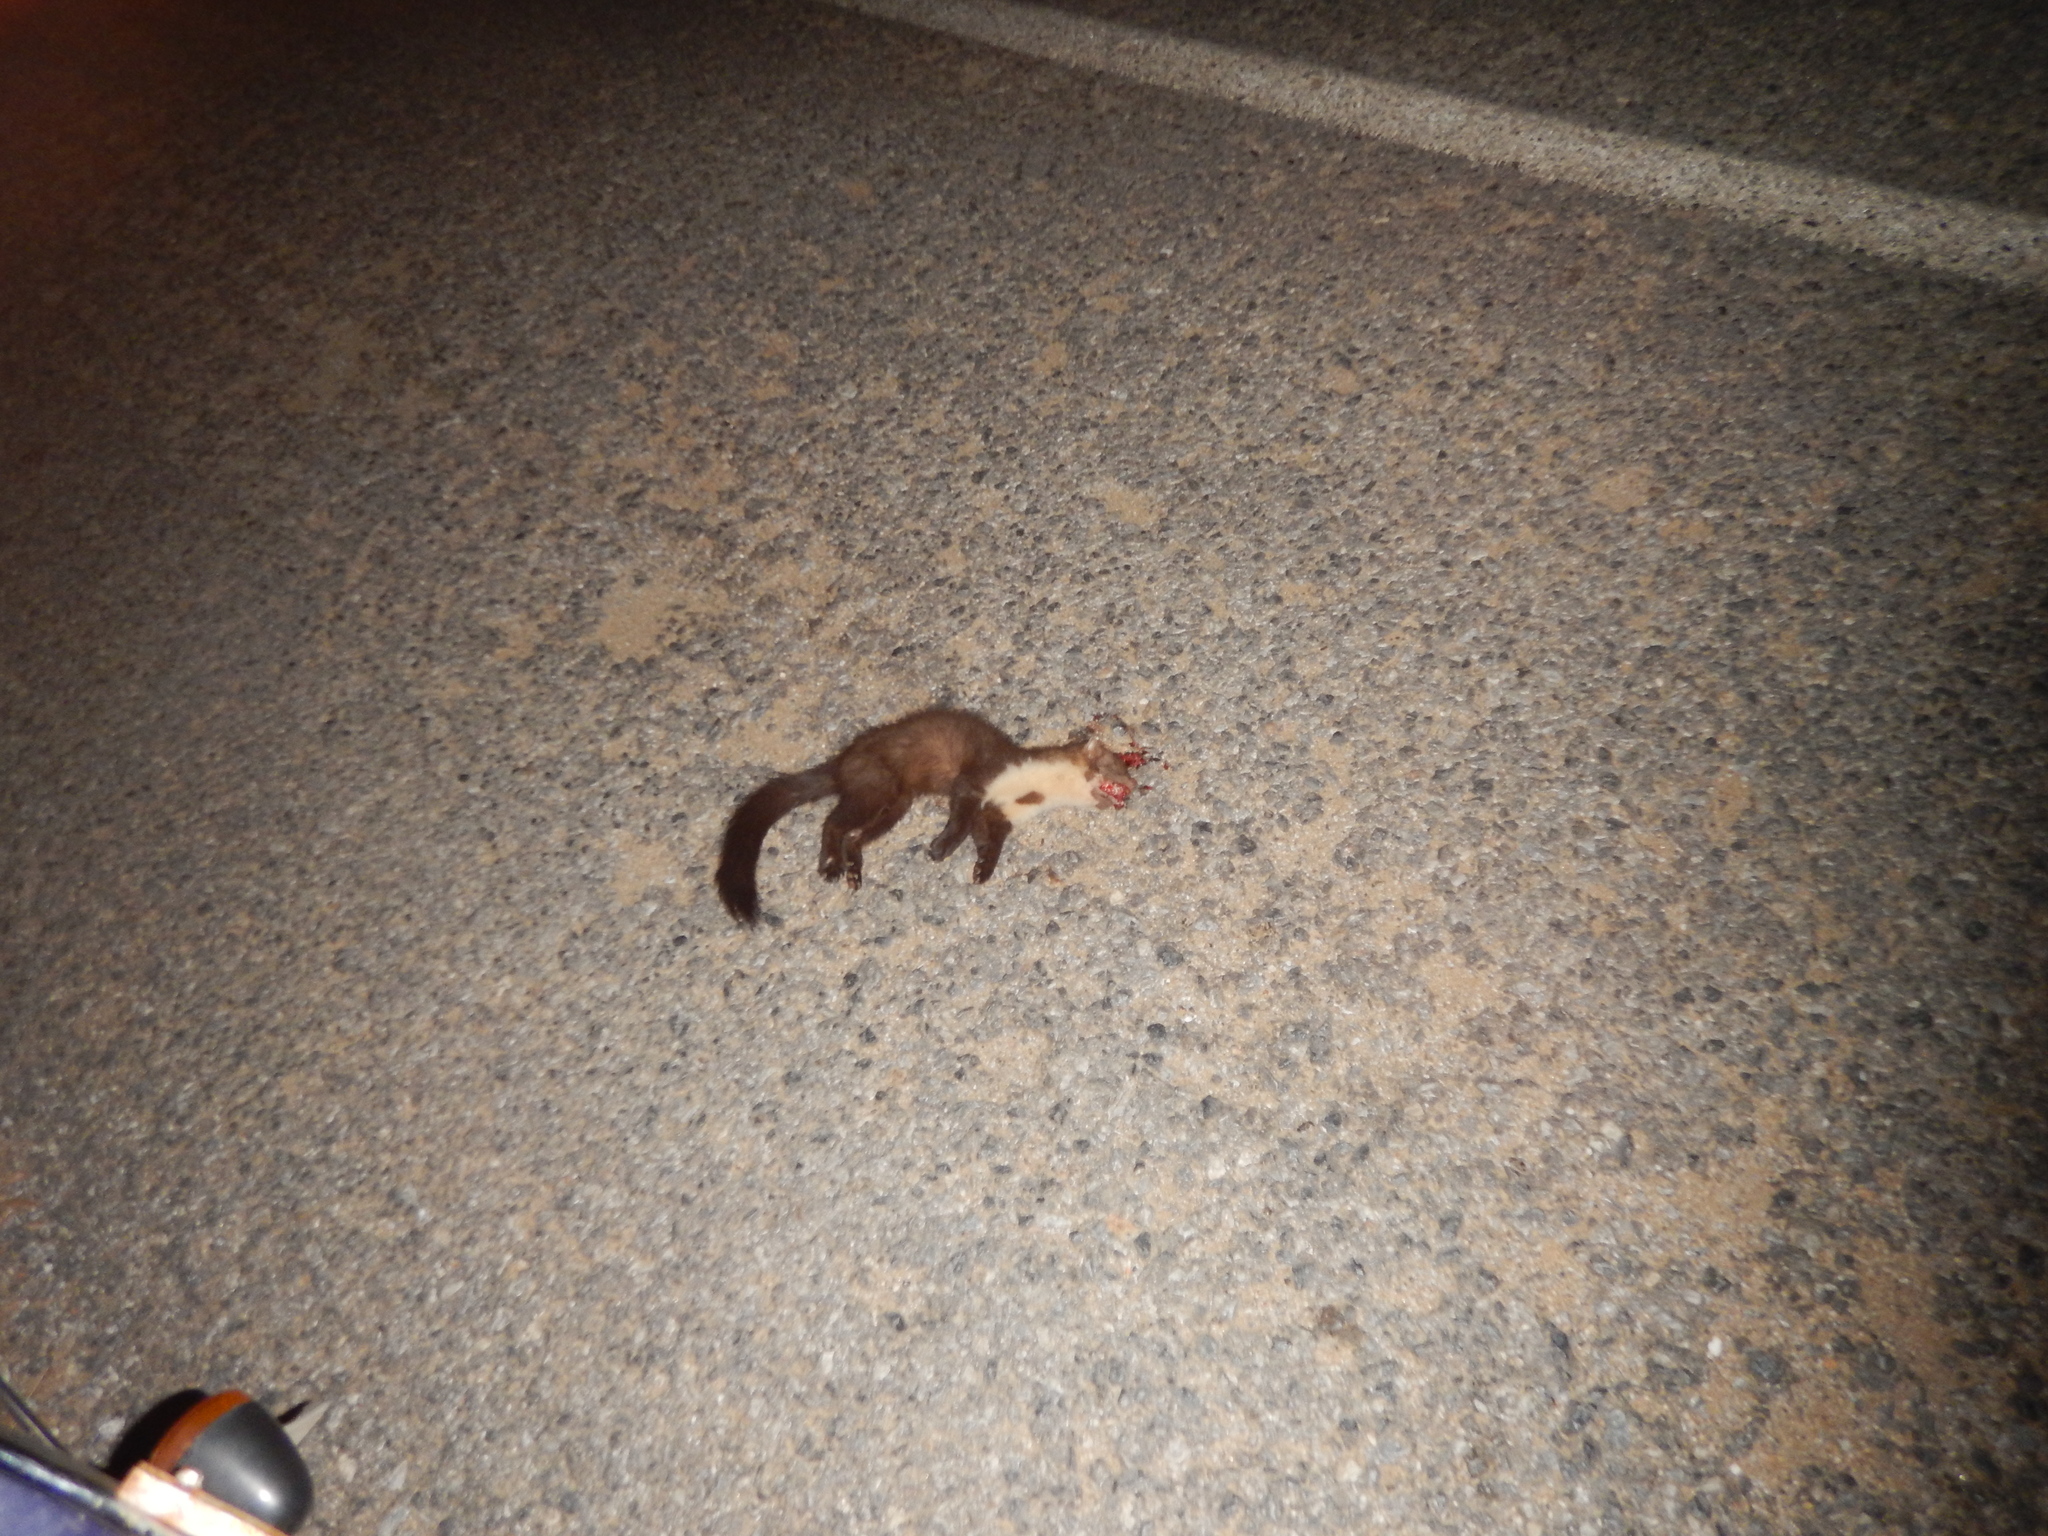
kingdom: Animalia
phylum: Chordata
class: Mammalia
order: Carnivora
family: Mustelidae
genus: Martes
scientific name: Martes foina
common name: Beech marten
